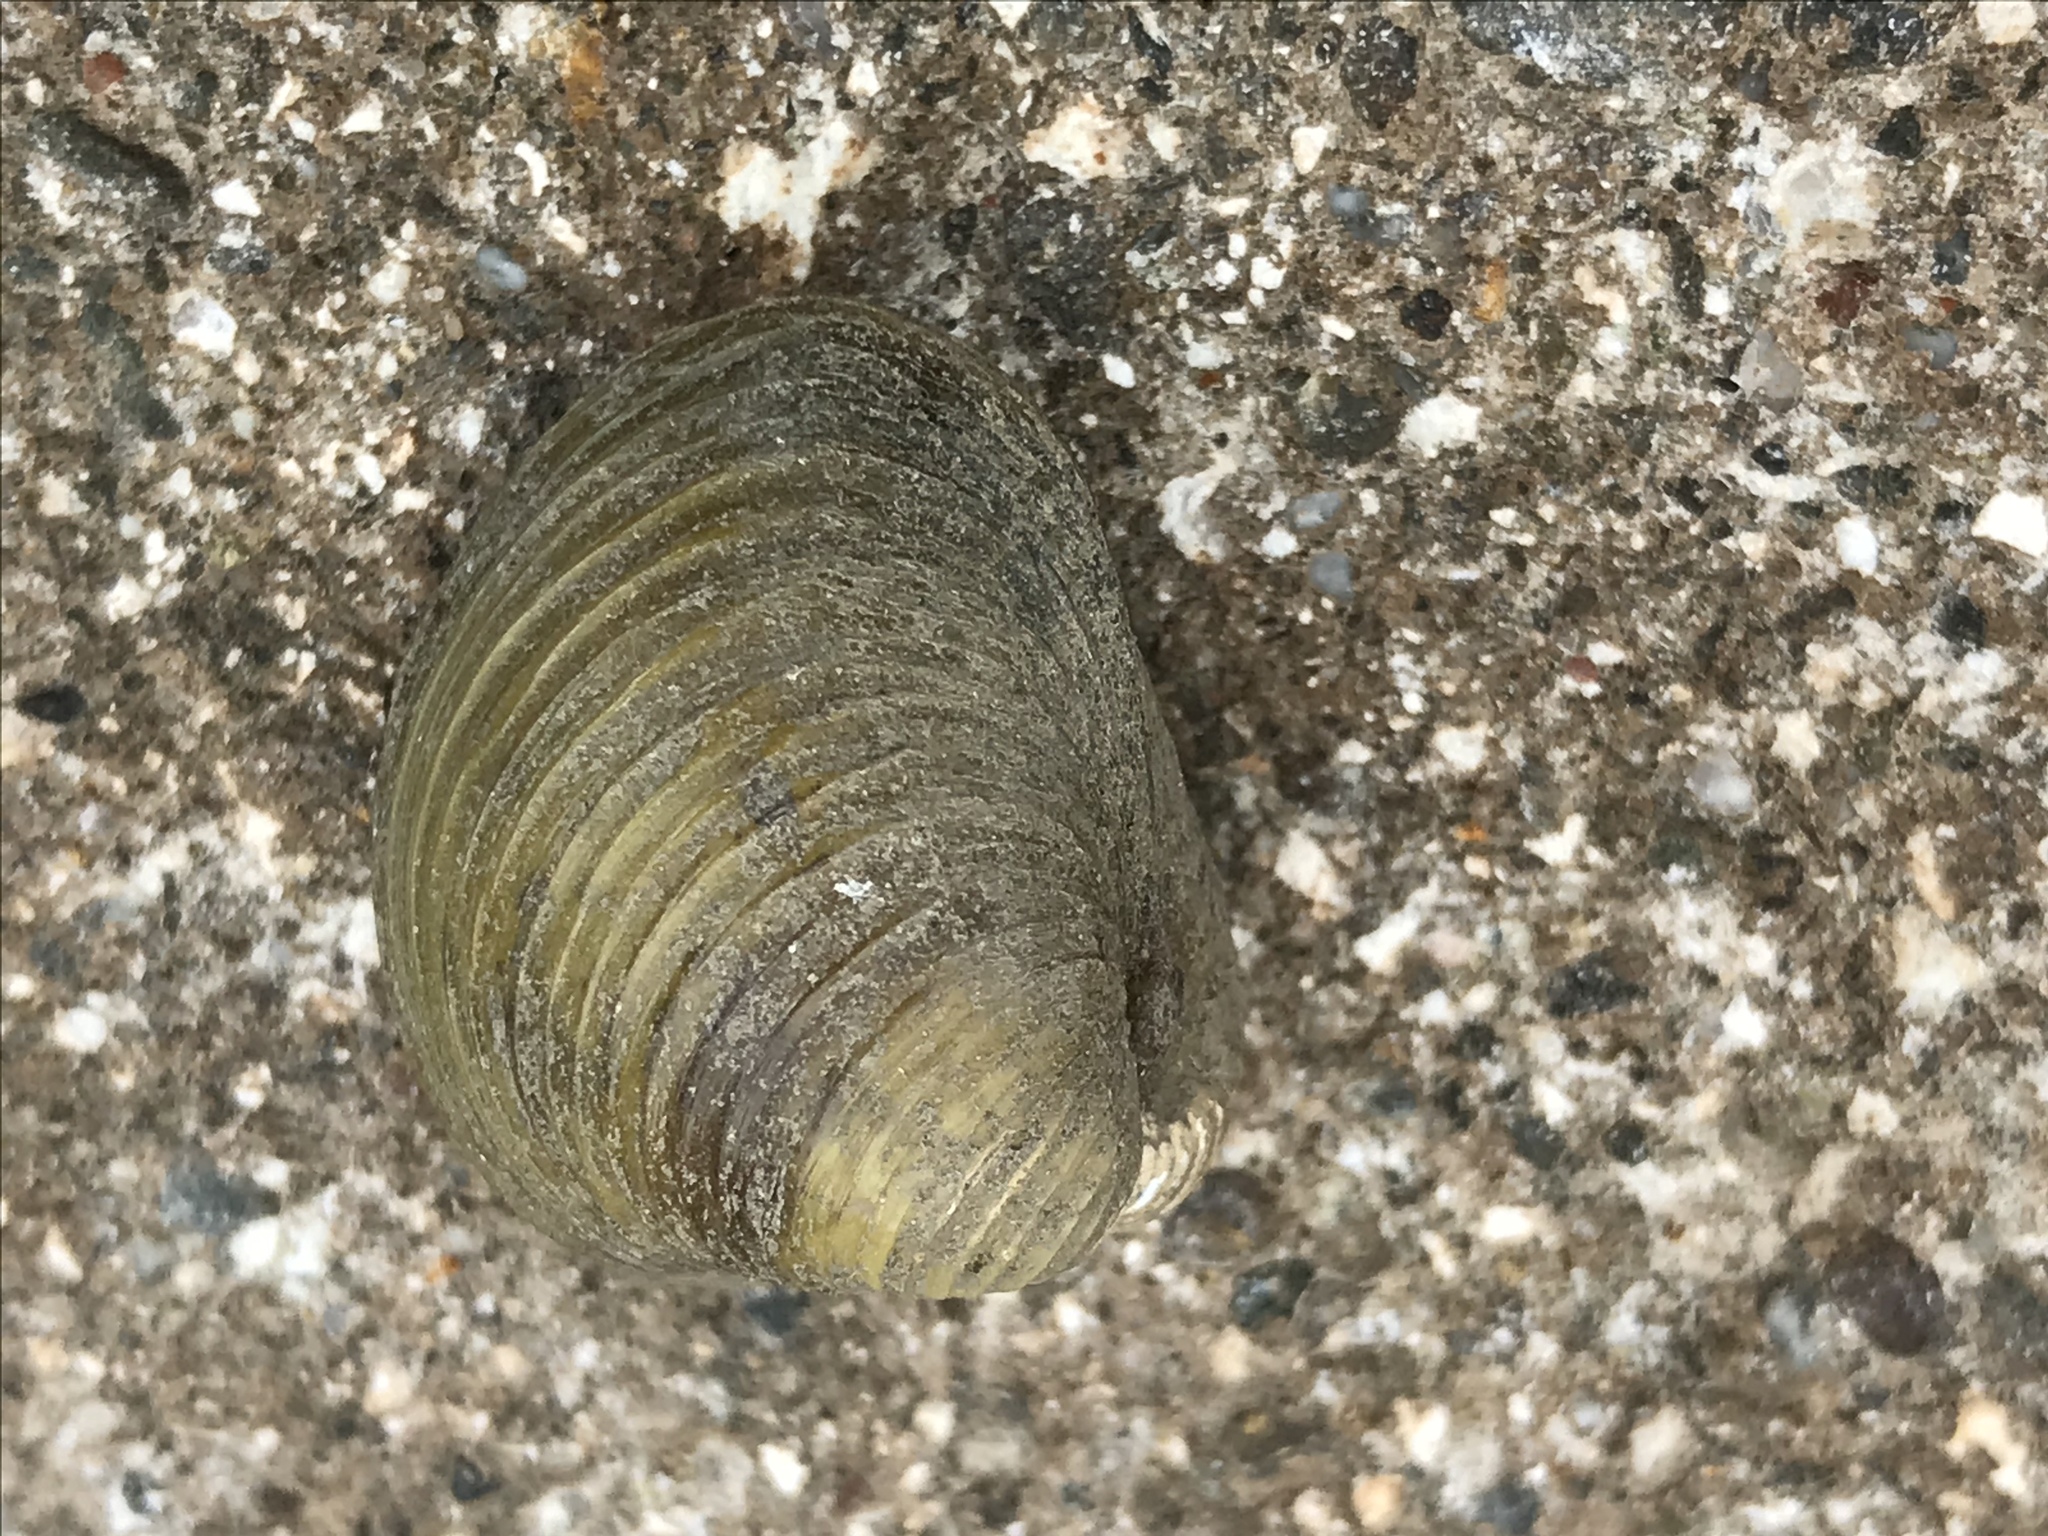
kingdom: Animalia
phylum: Mollusca
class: Bivalvia
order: Venerida
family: Cyrenidae
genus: Corbicula
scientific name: Corbicula fluminea
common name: Asian clam
